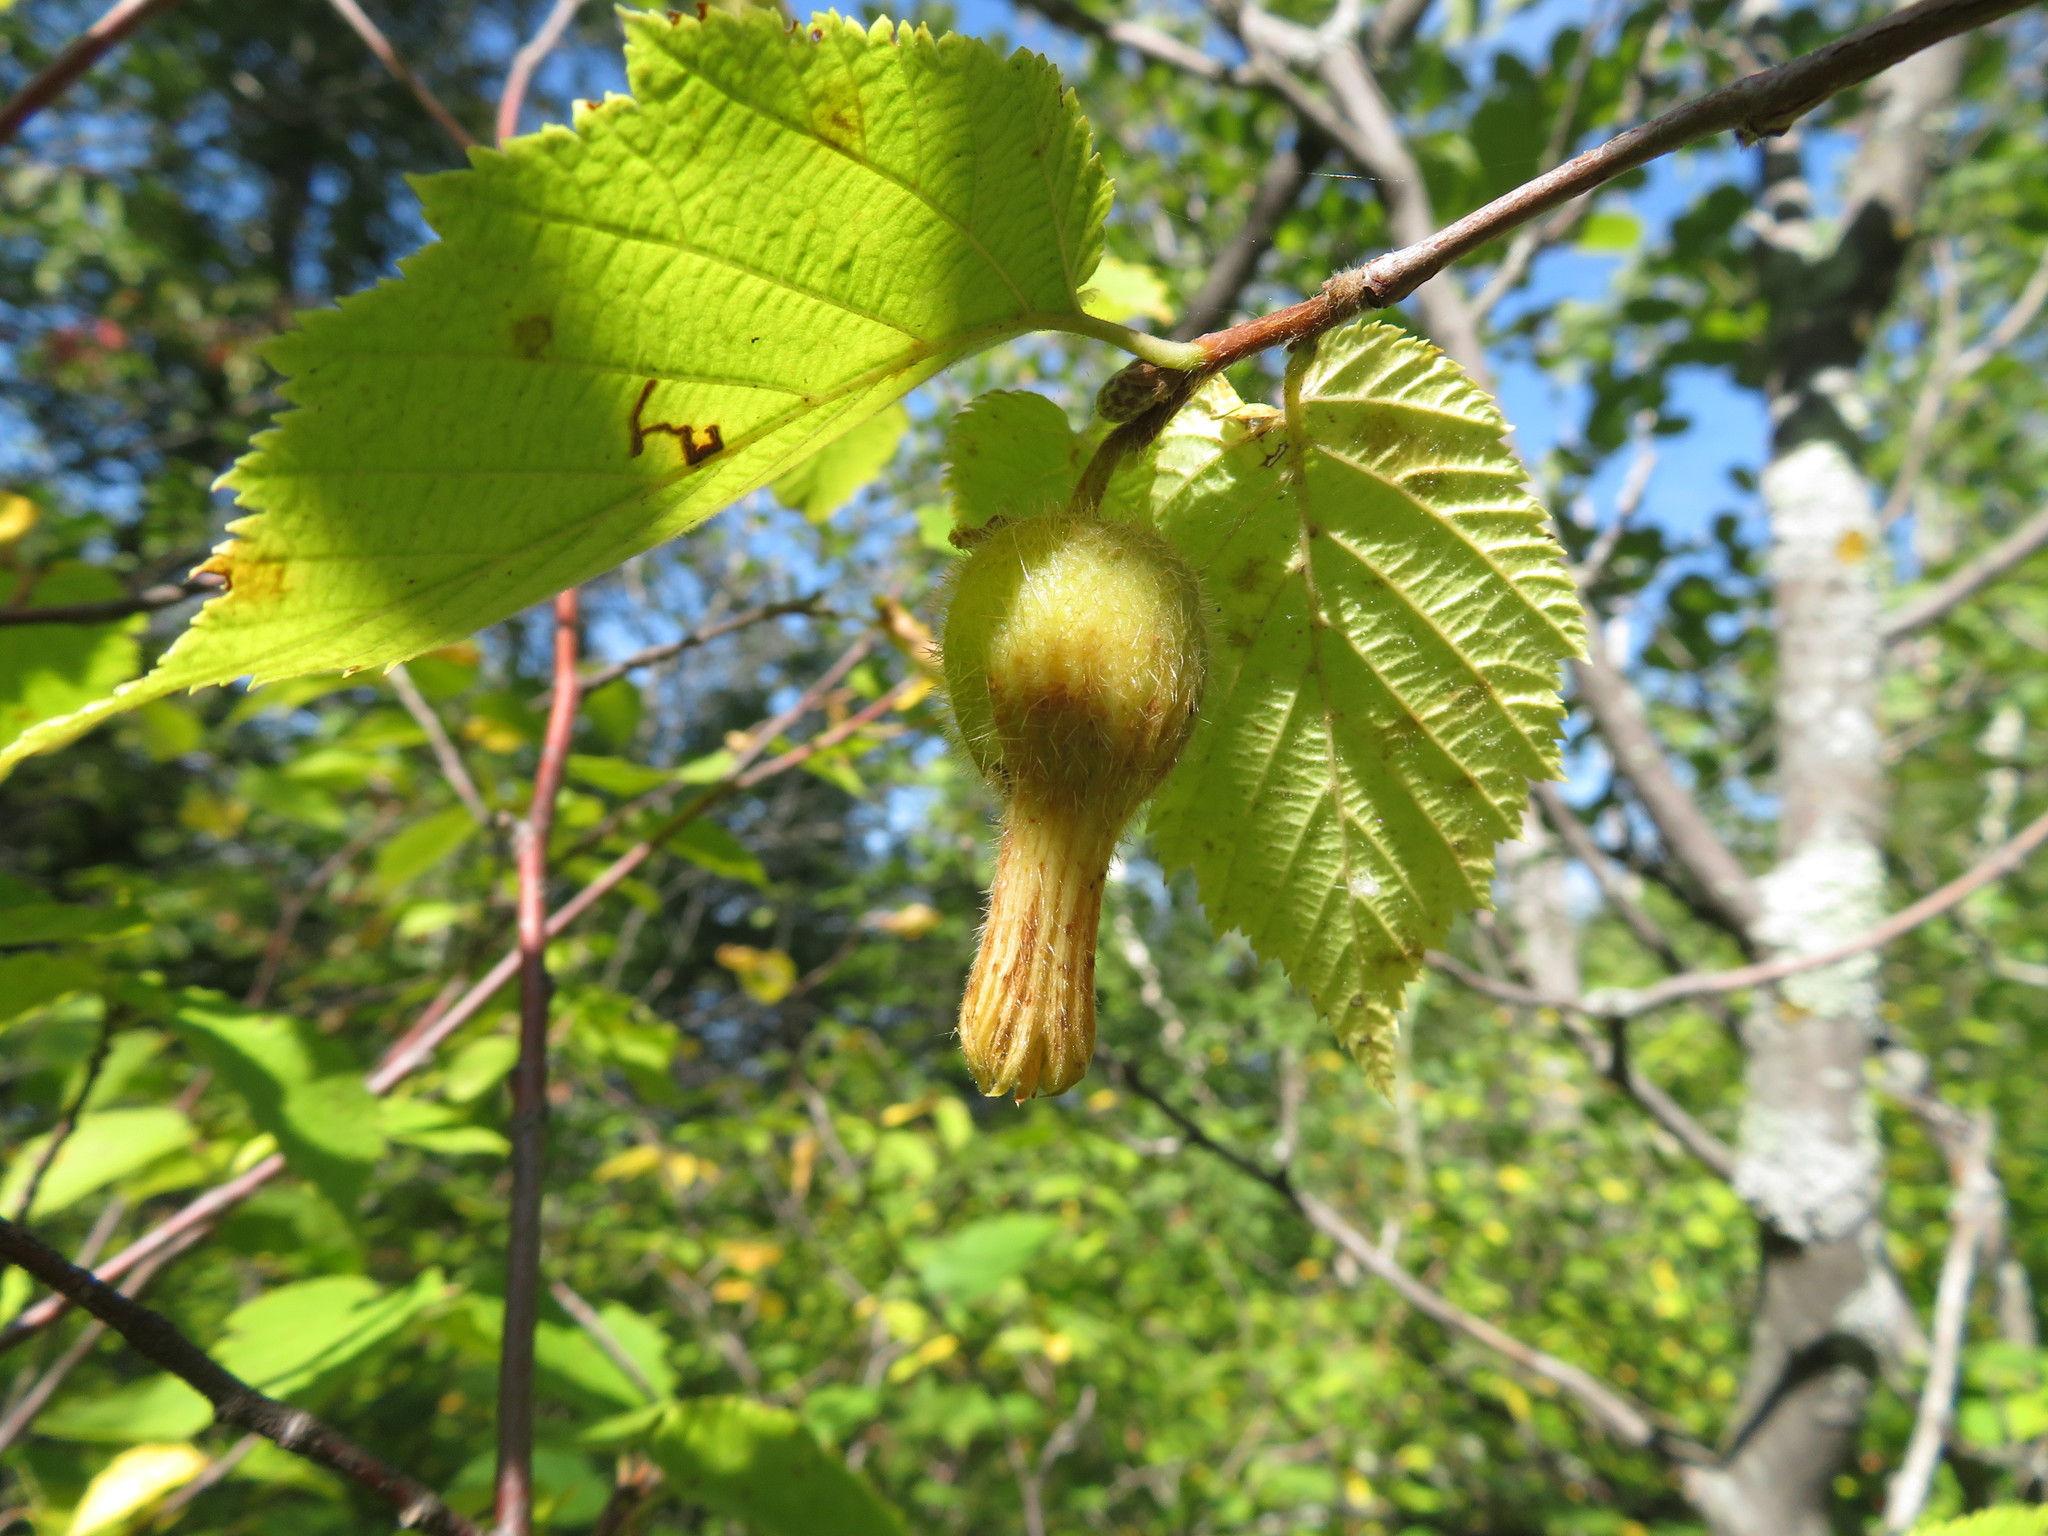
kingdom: Plantae
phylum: Tracheophyta
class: Magnoliopsida
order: Fagales
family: Betulaceae
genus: Corylus
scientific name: Corylus cornuta
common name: Beaked hazel
